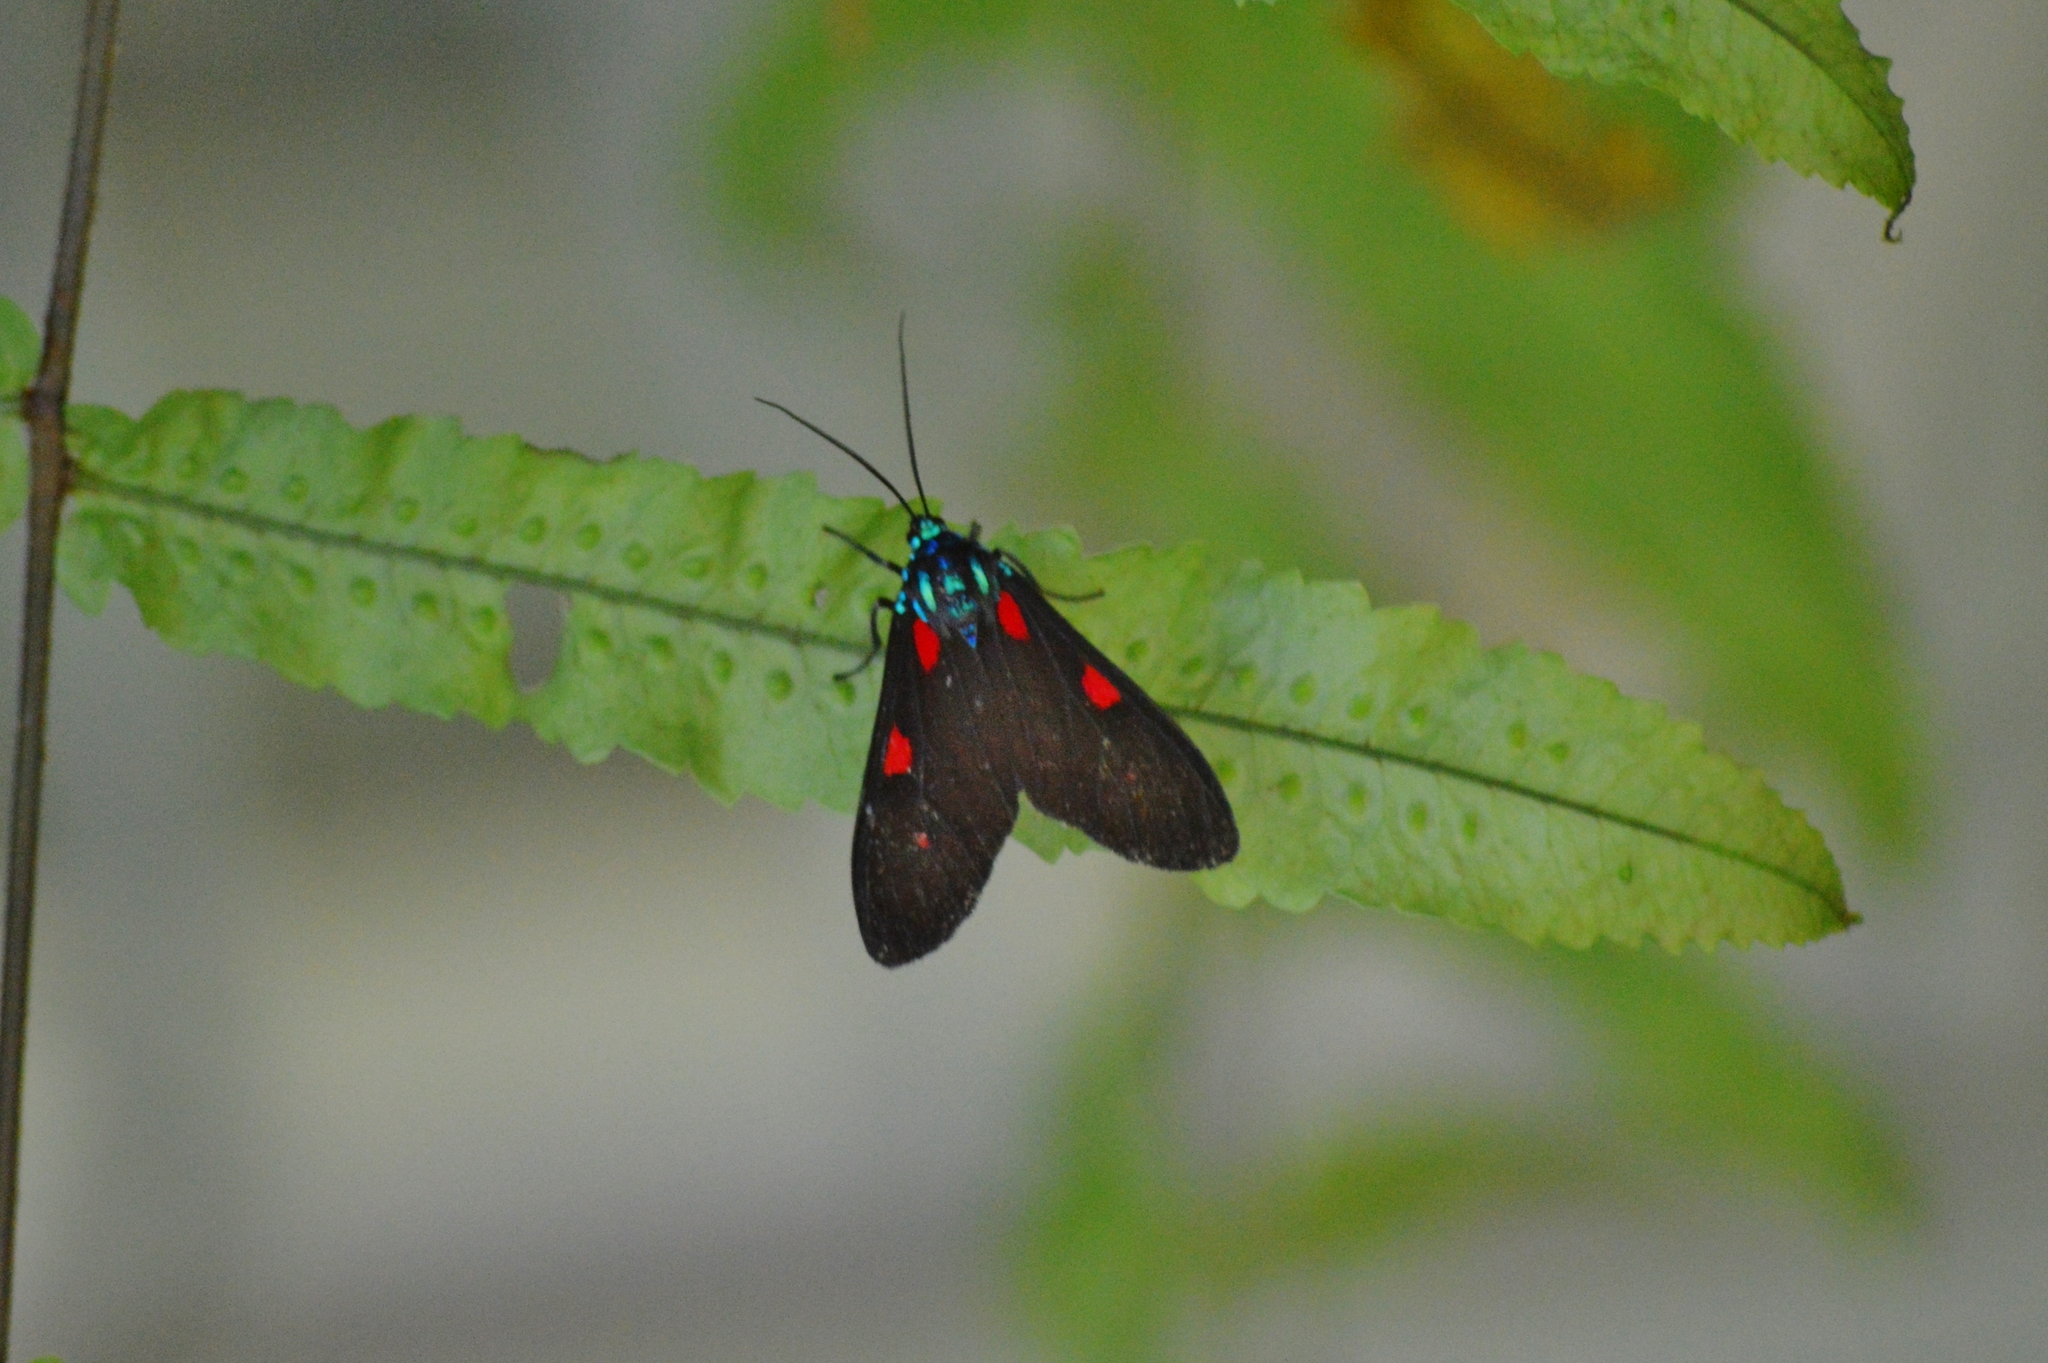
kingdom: Animalia
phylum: Arthropoda
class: Insecta
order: Lepidoptera
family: Erebidae
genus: Cyanopepla
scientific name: Cyanopepla fastuosa
